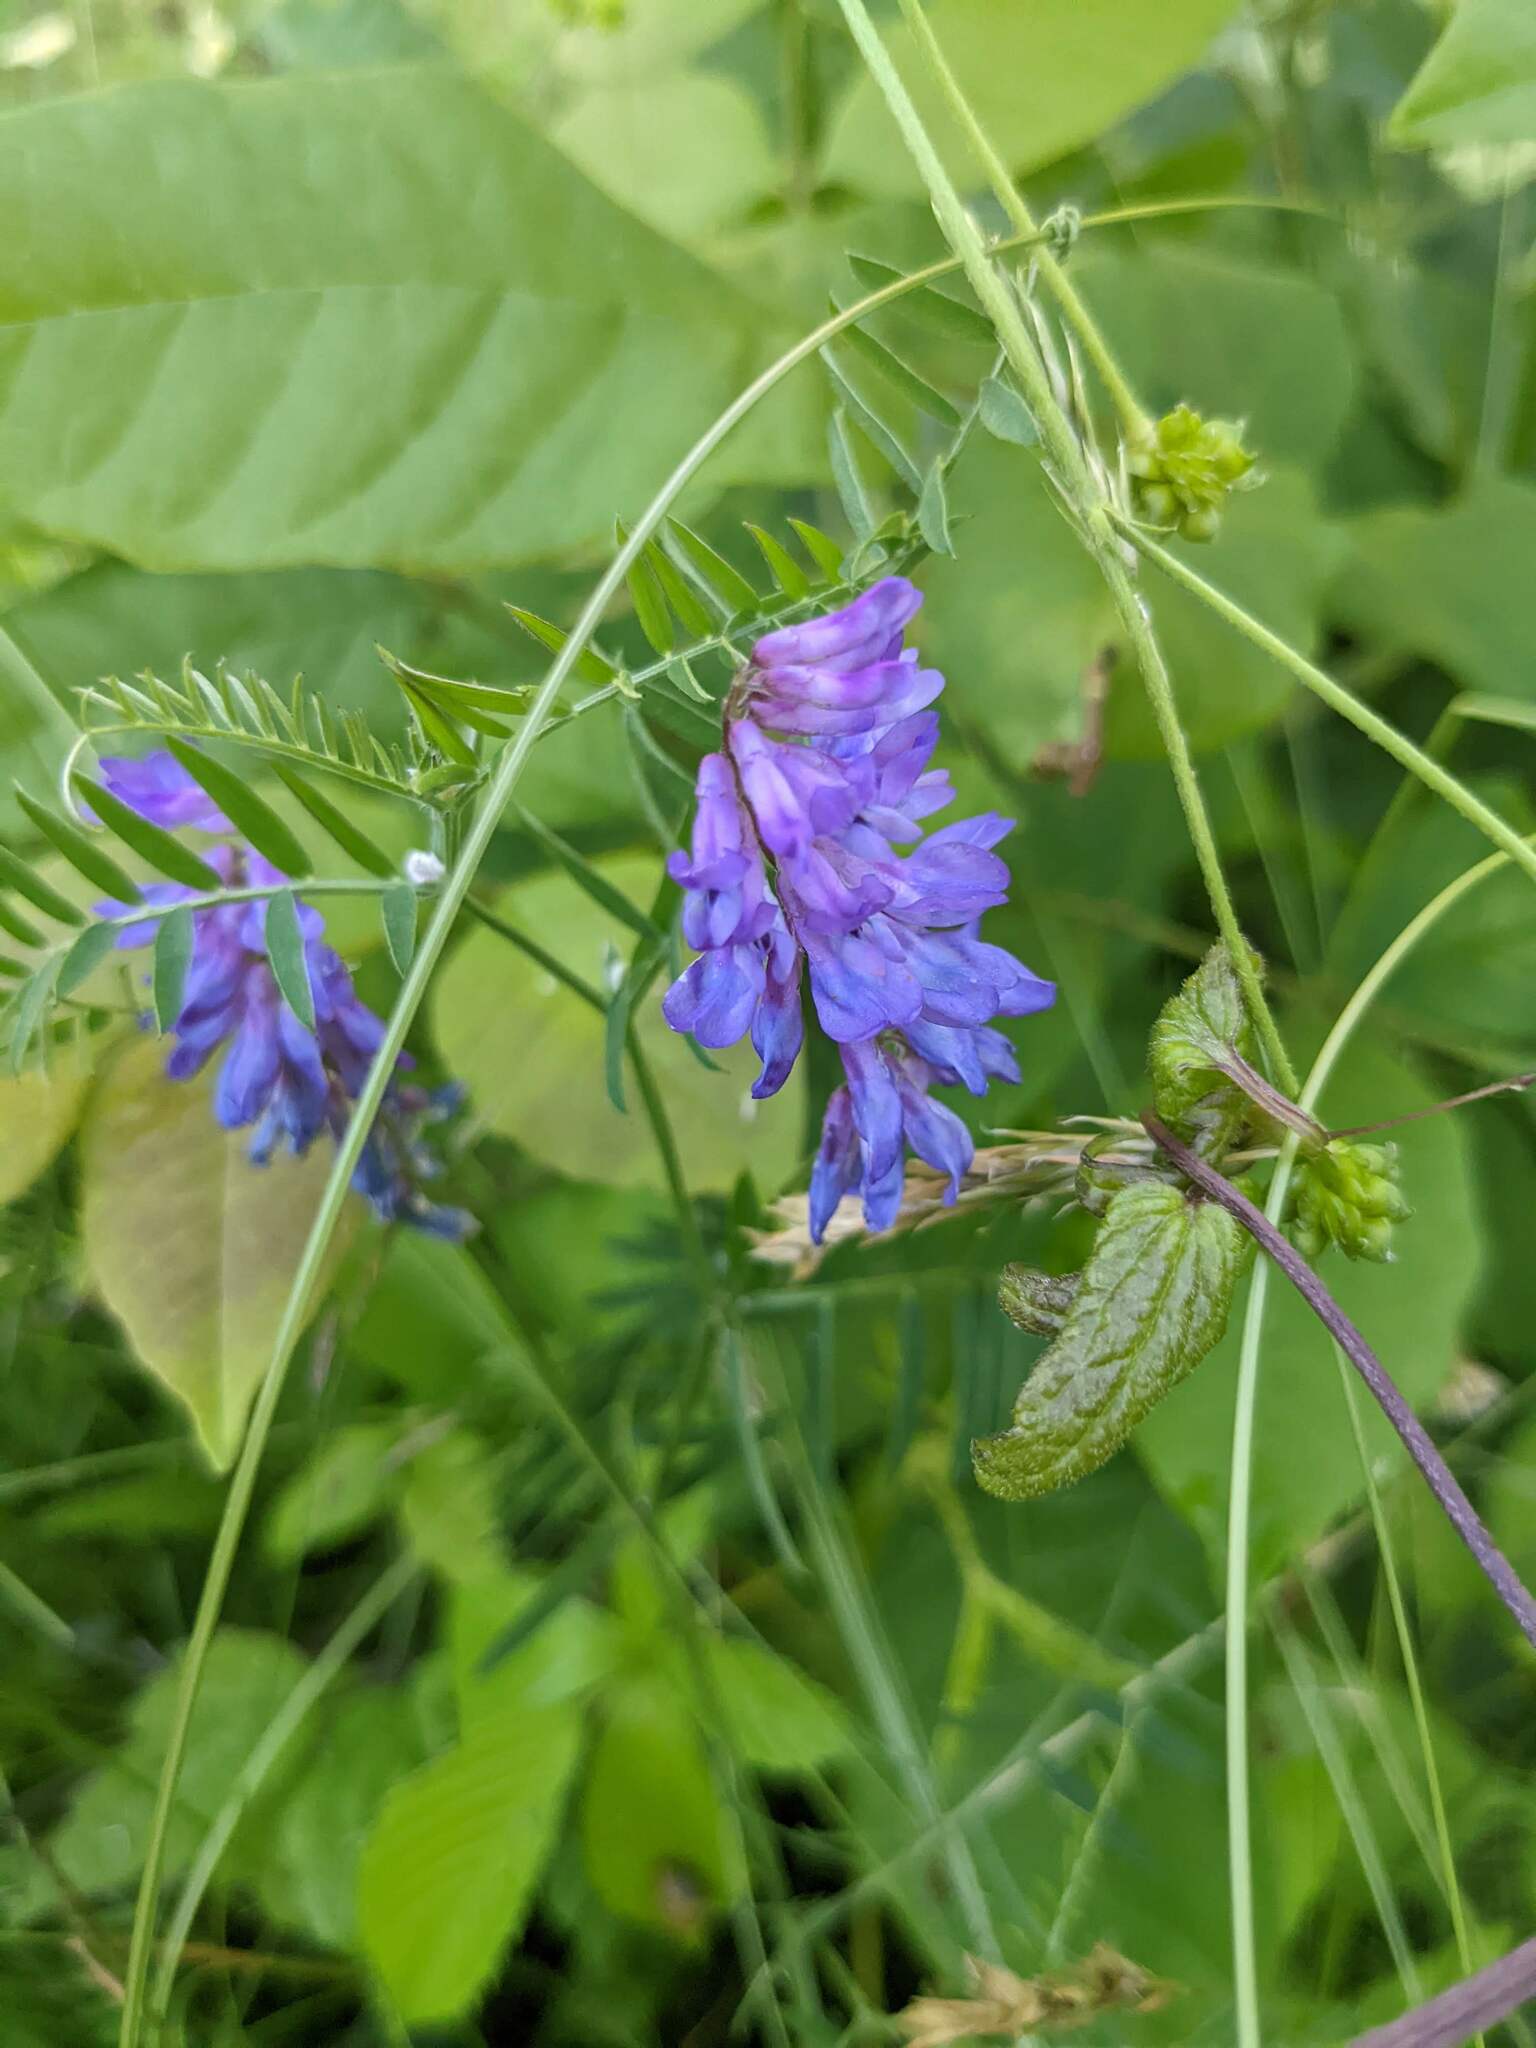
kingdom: Plantae
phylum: Tracheophyta
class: Magnoliopsida
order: Fabales
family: Fabaceae
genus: Vicia
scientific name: Vicia cracca
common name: Bird vetch
